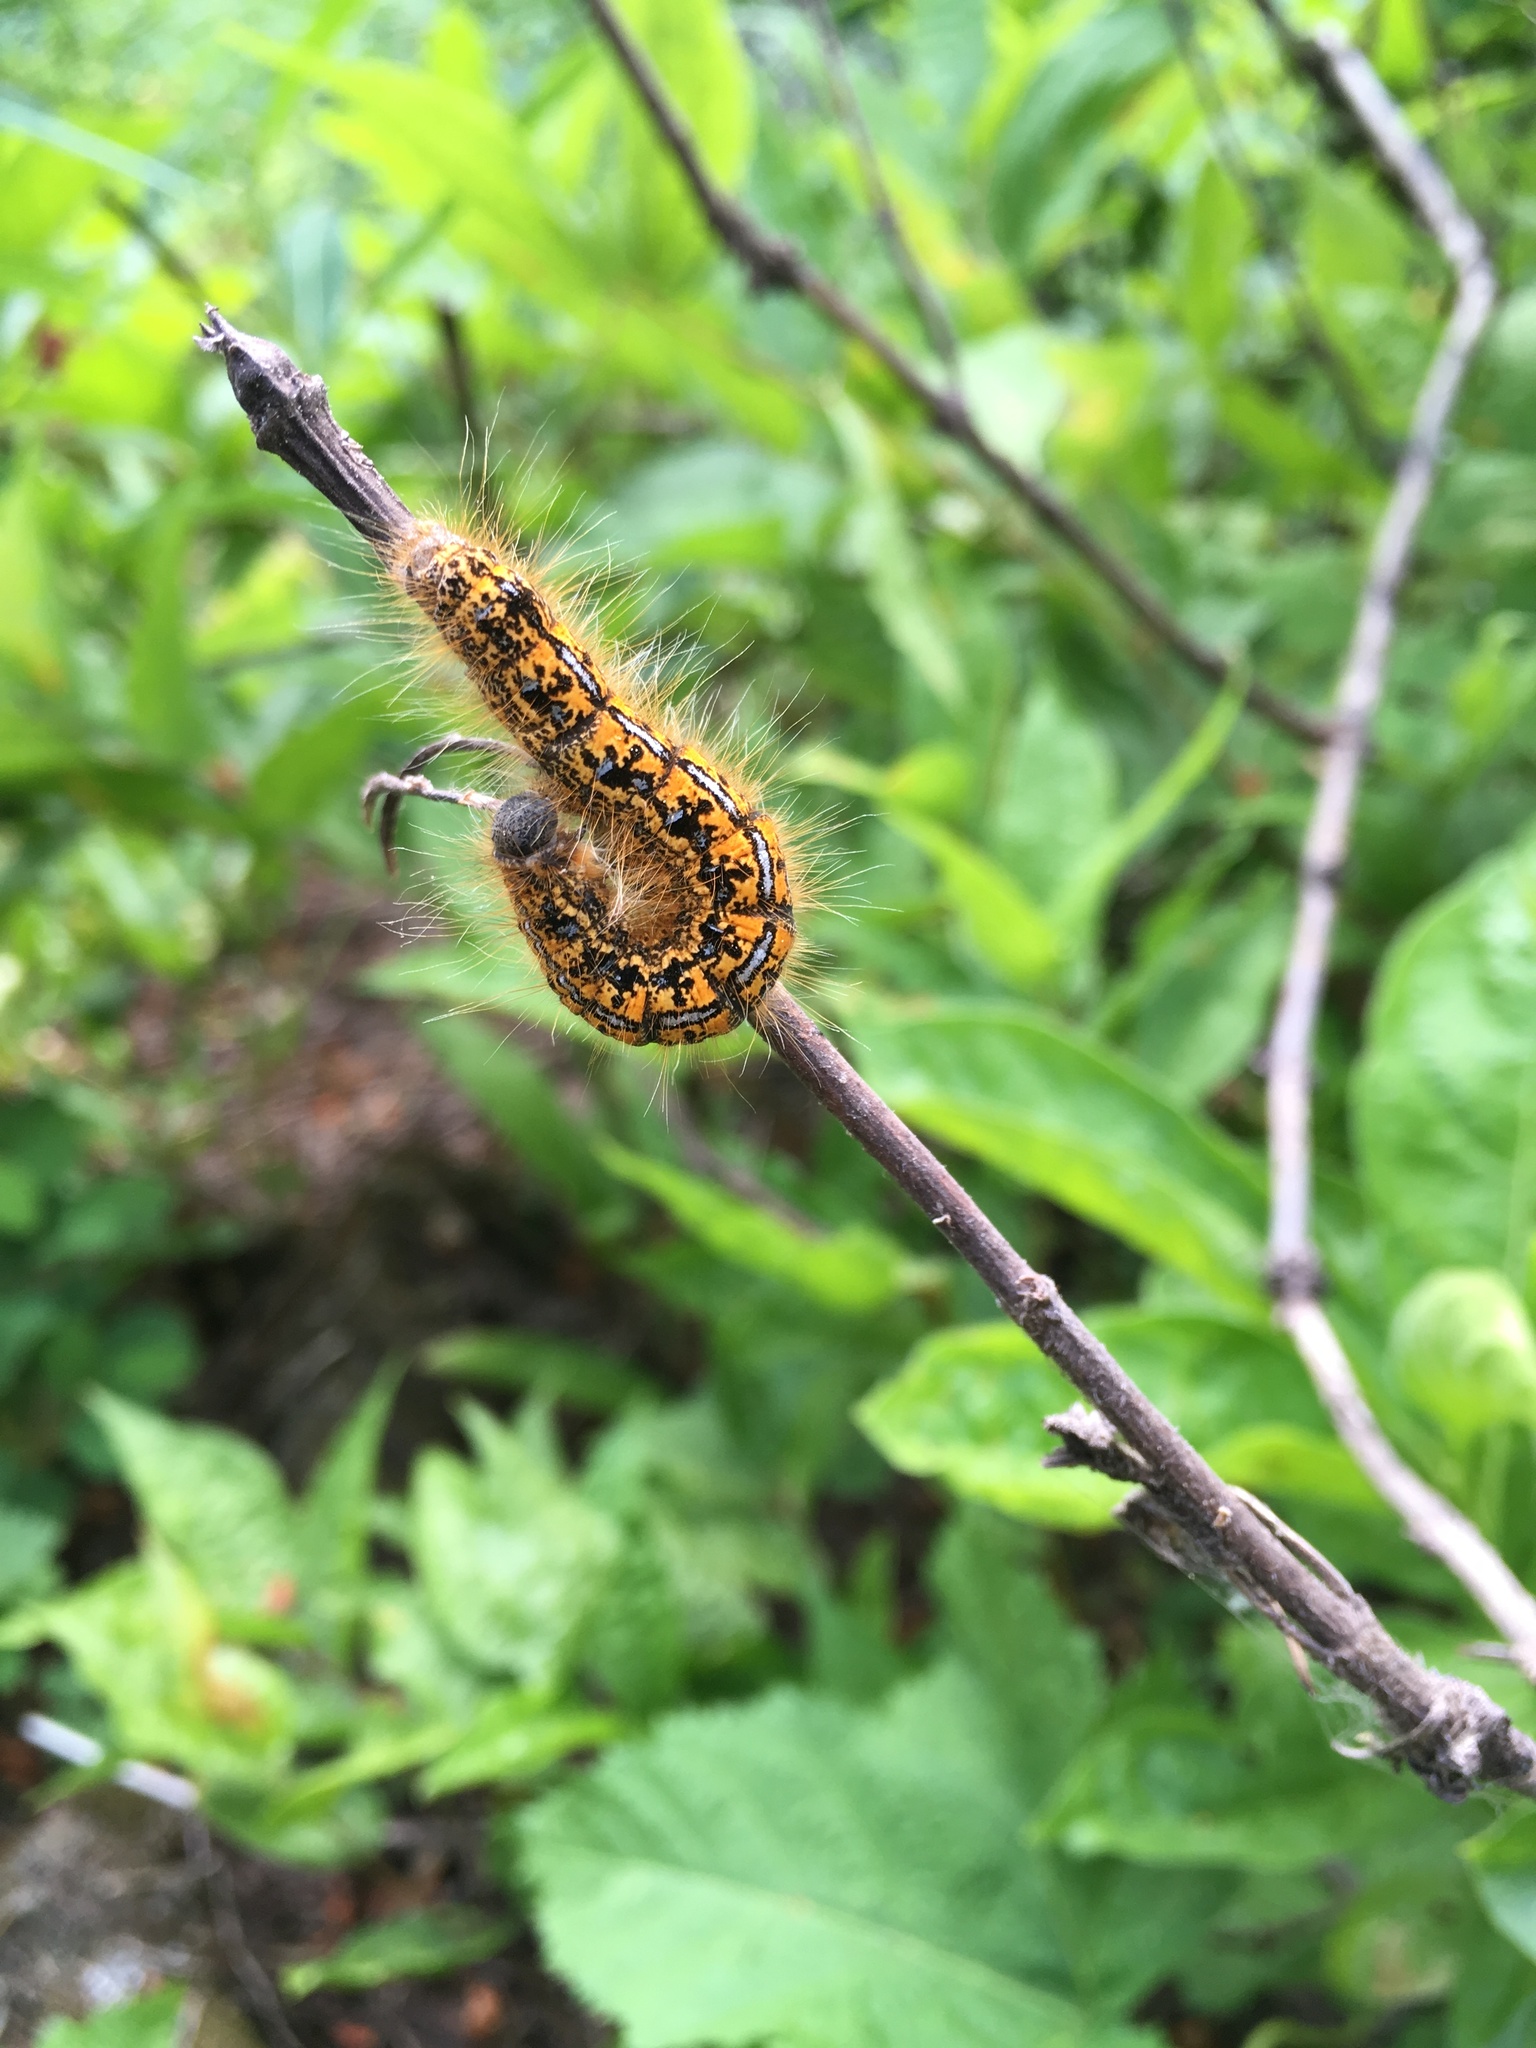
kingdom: Animalia
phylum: Arthropoda
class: Insecta
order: Lepidoptera
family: Lasiocampidae
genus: Malacosoma
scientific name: Malacosoma californica
